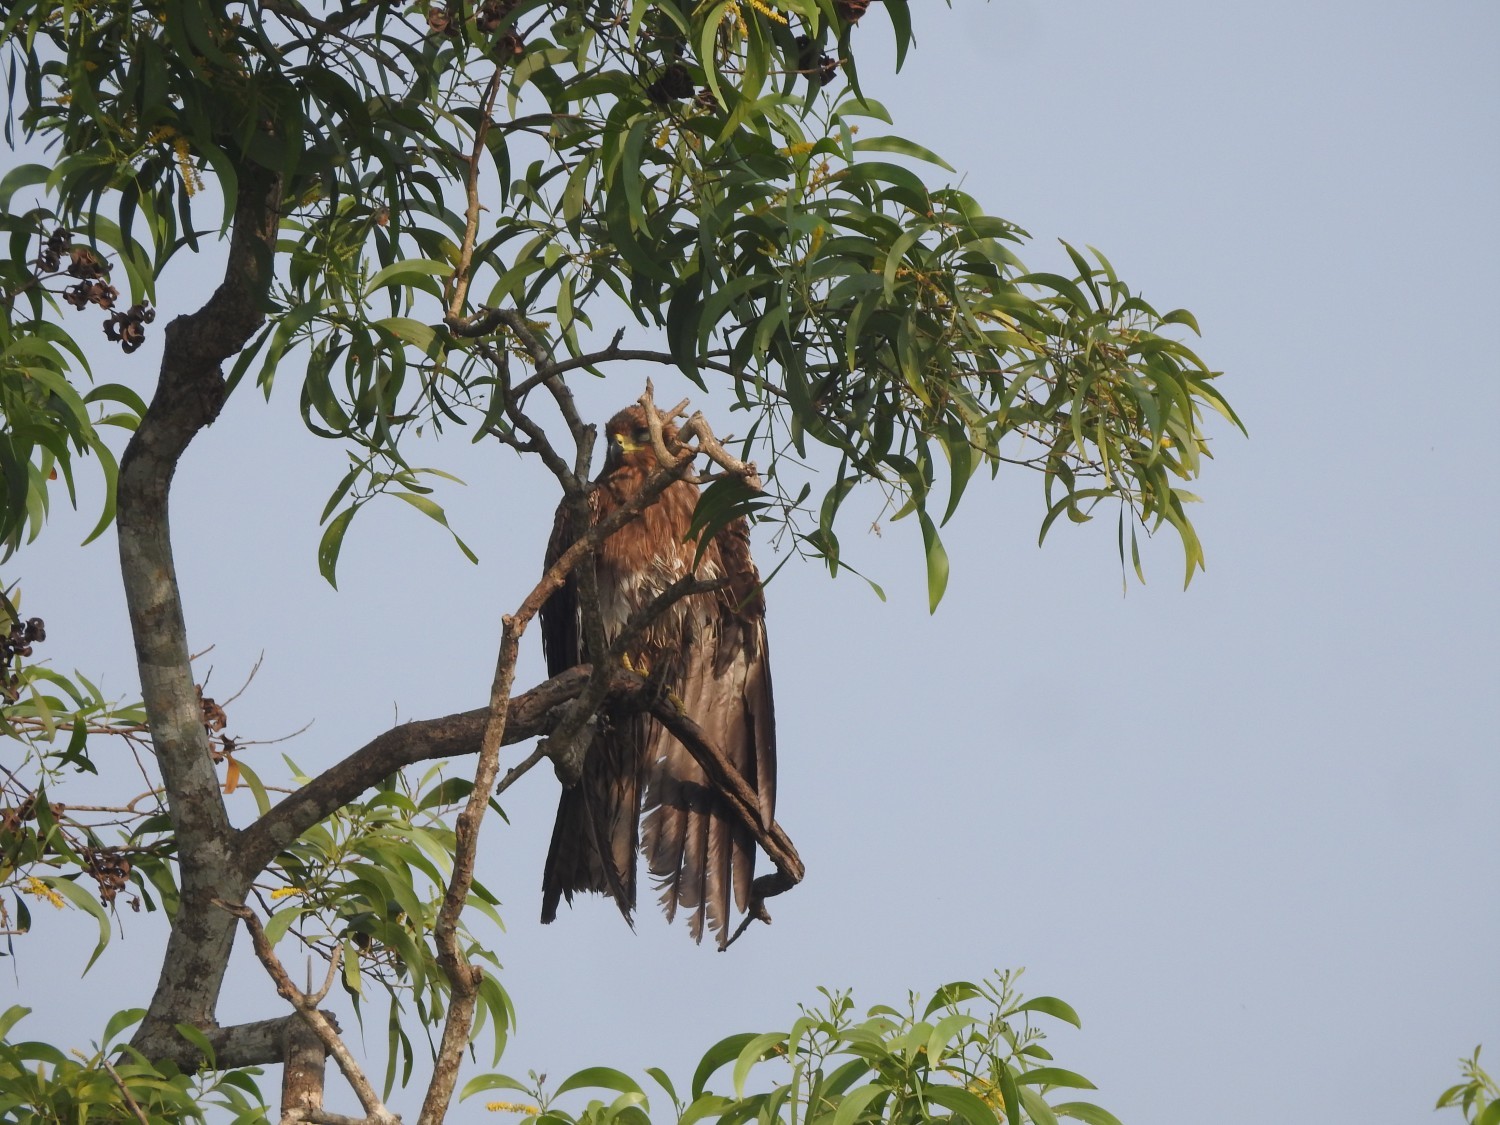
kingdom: Animalia
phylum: Chordata
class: Aves
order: Accipitriformes
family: Accipitridae
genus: Milvus
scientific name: Milvus migrans
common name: Black kite
